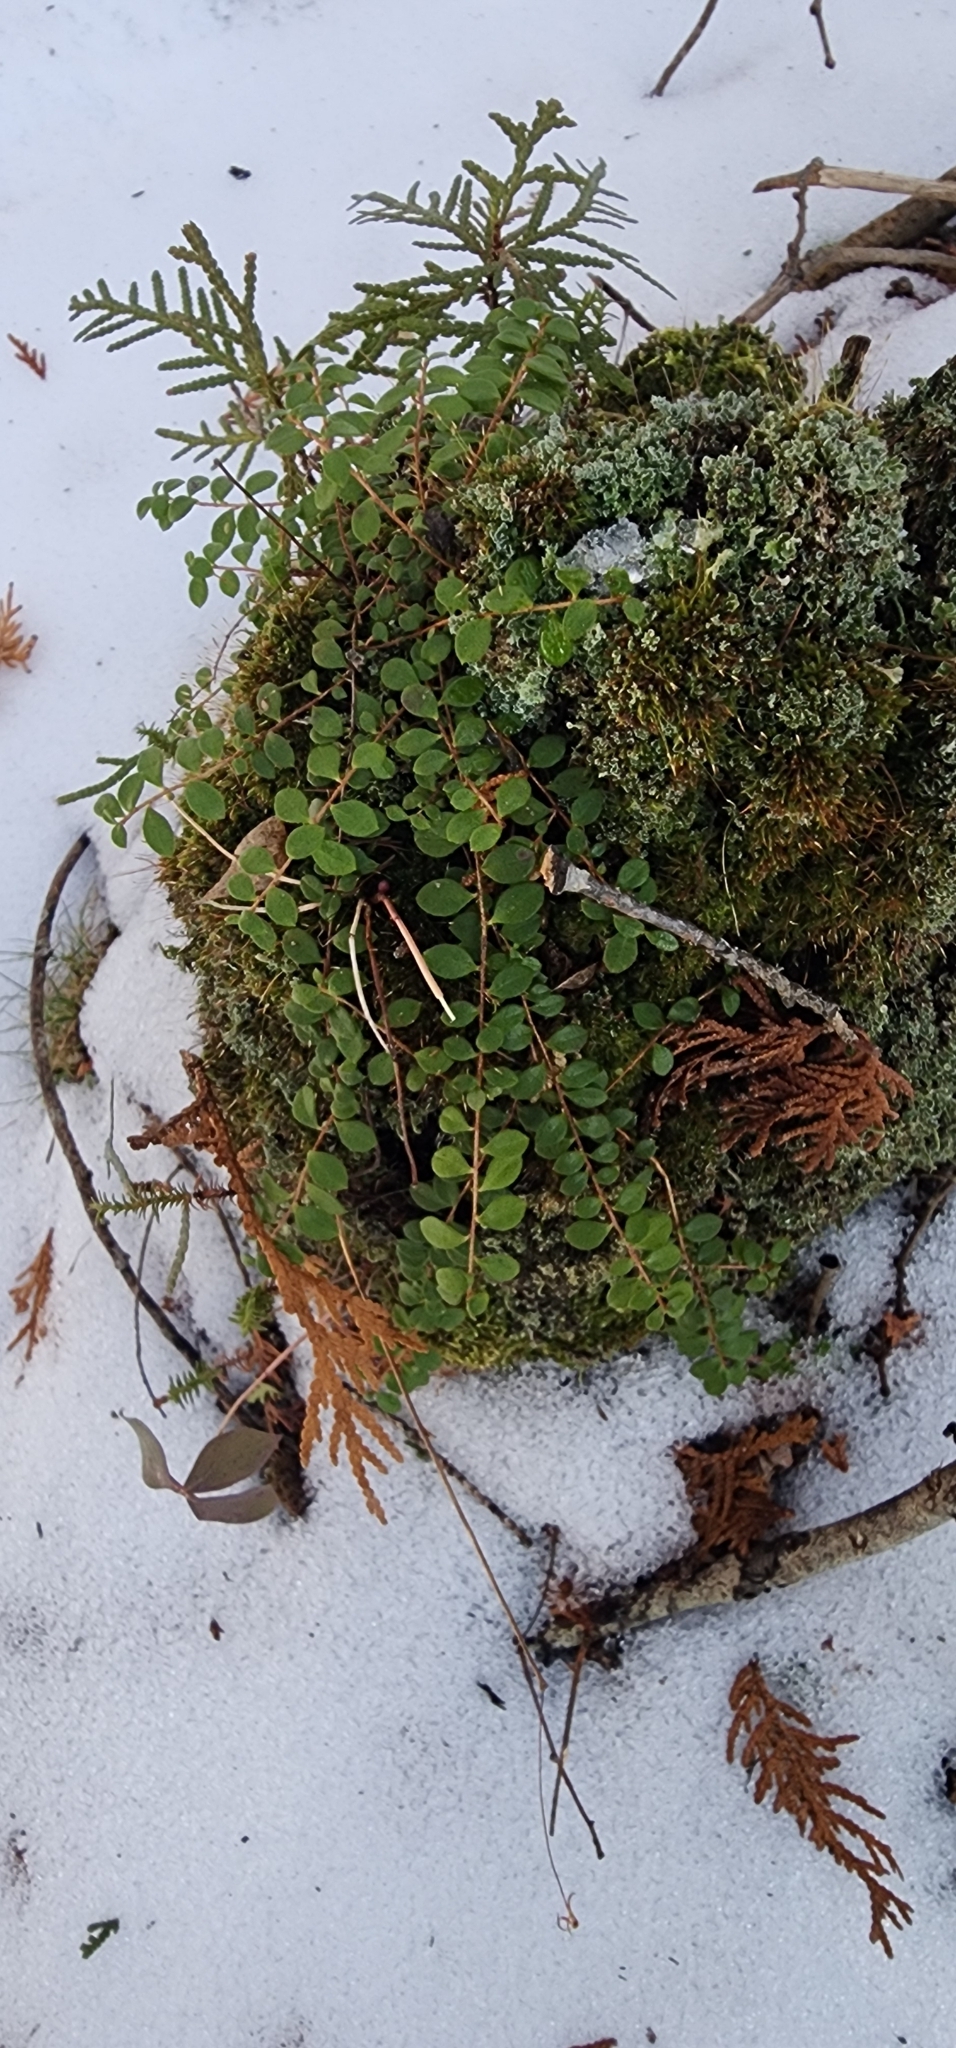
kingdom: Plantae
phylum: Tracheophyta
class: Magnoliopsida
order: Ericales
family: Ericaceae
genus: Gaultheria
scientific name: Gaultheria hispidula
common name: Cancer wintergreen
